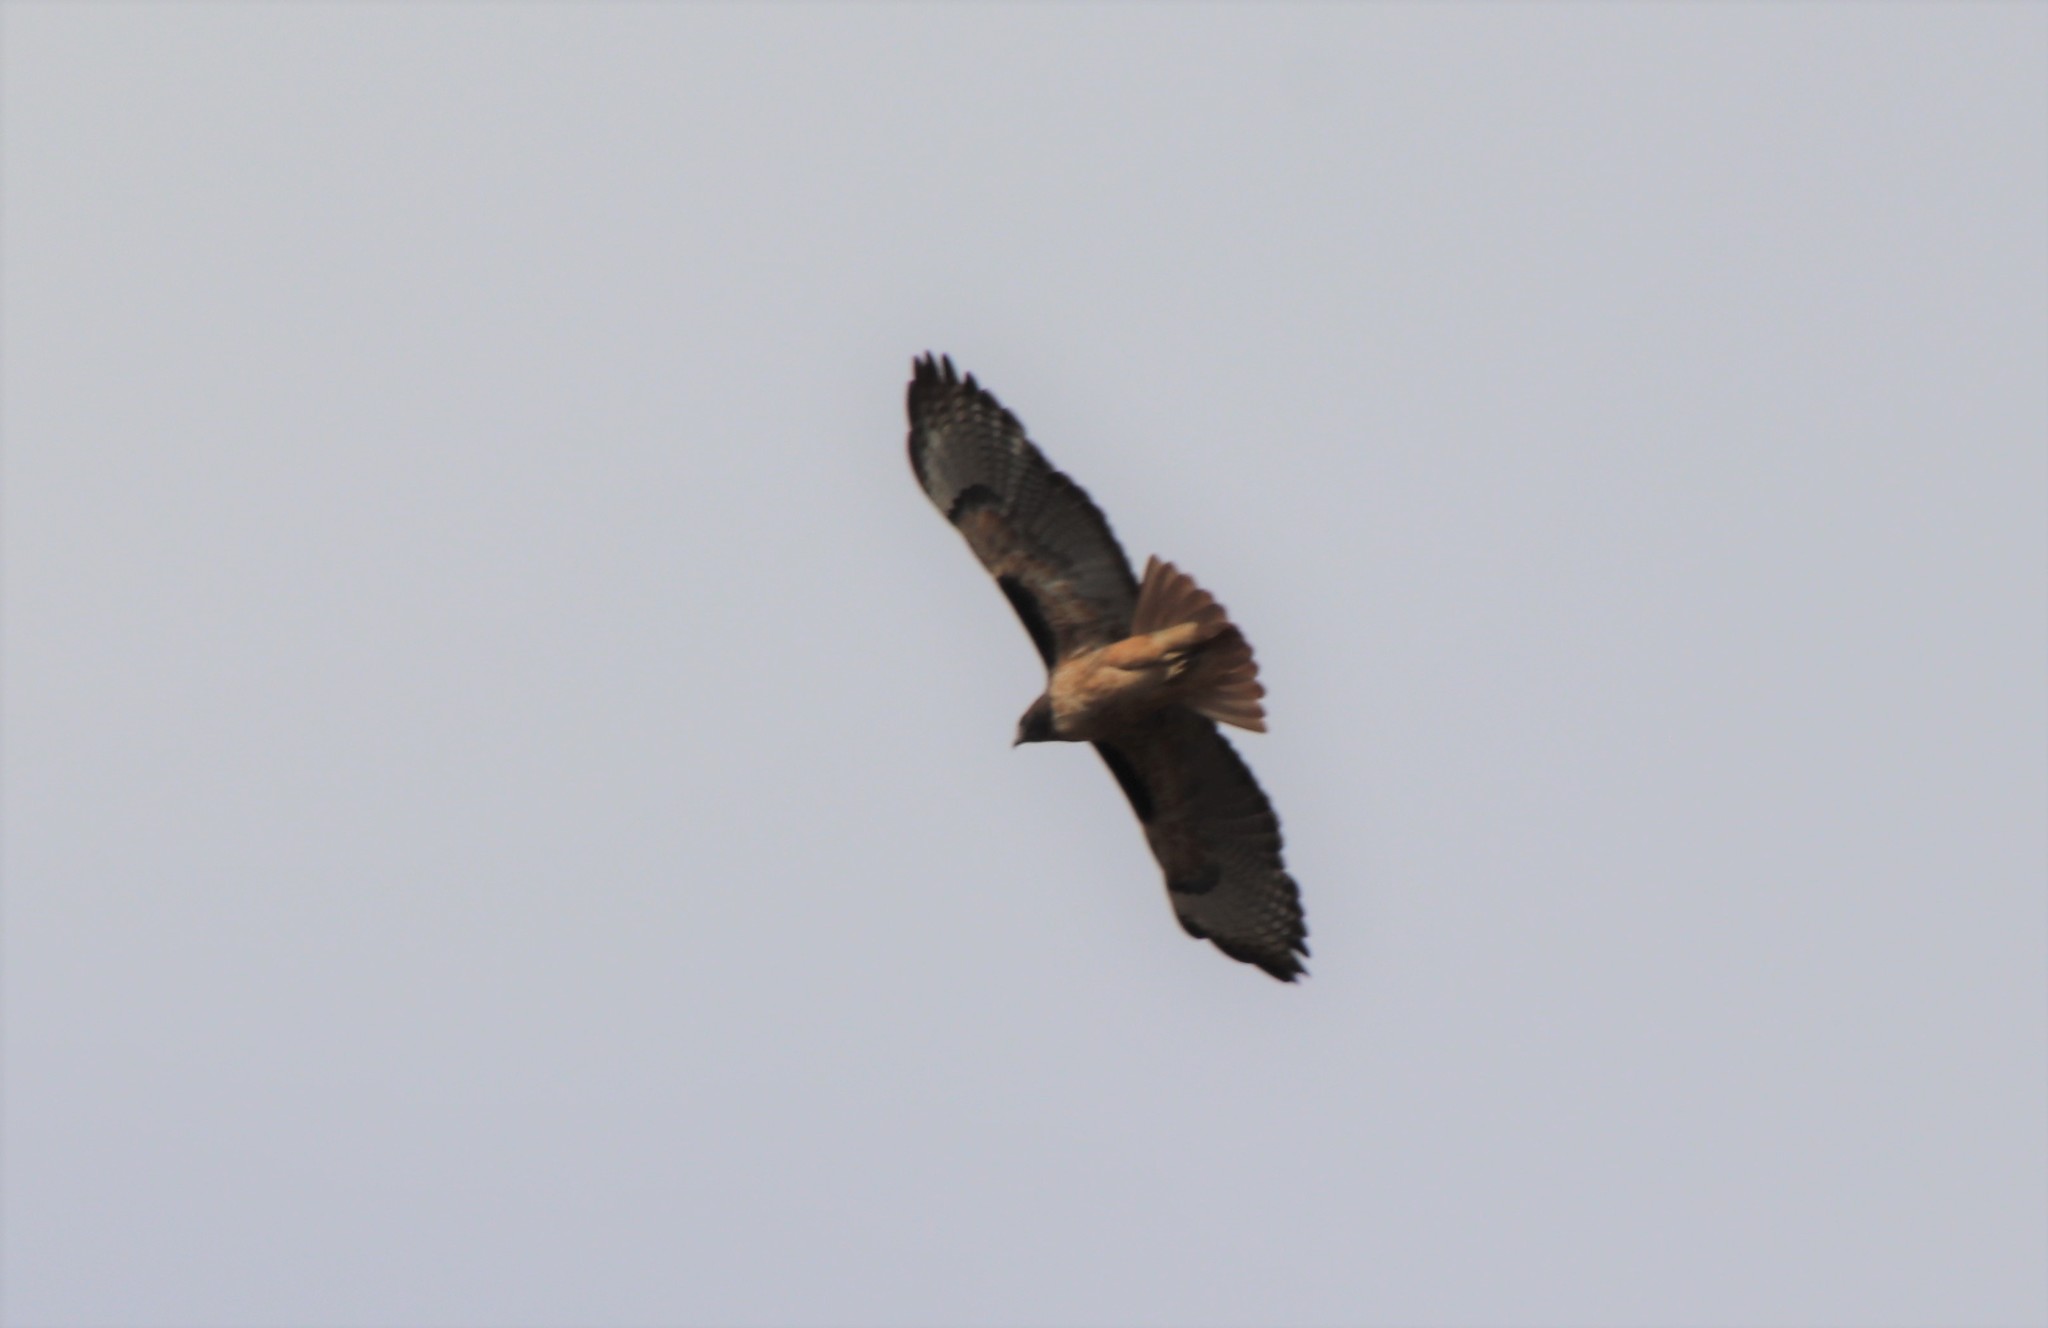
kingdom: Animalia
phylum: Chordata
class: Aves
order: Accipitriformes
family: Accipitridae
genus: Buteo
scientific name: Buteo jamaicensis
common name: Red-tailed hawk
